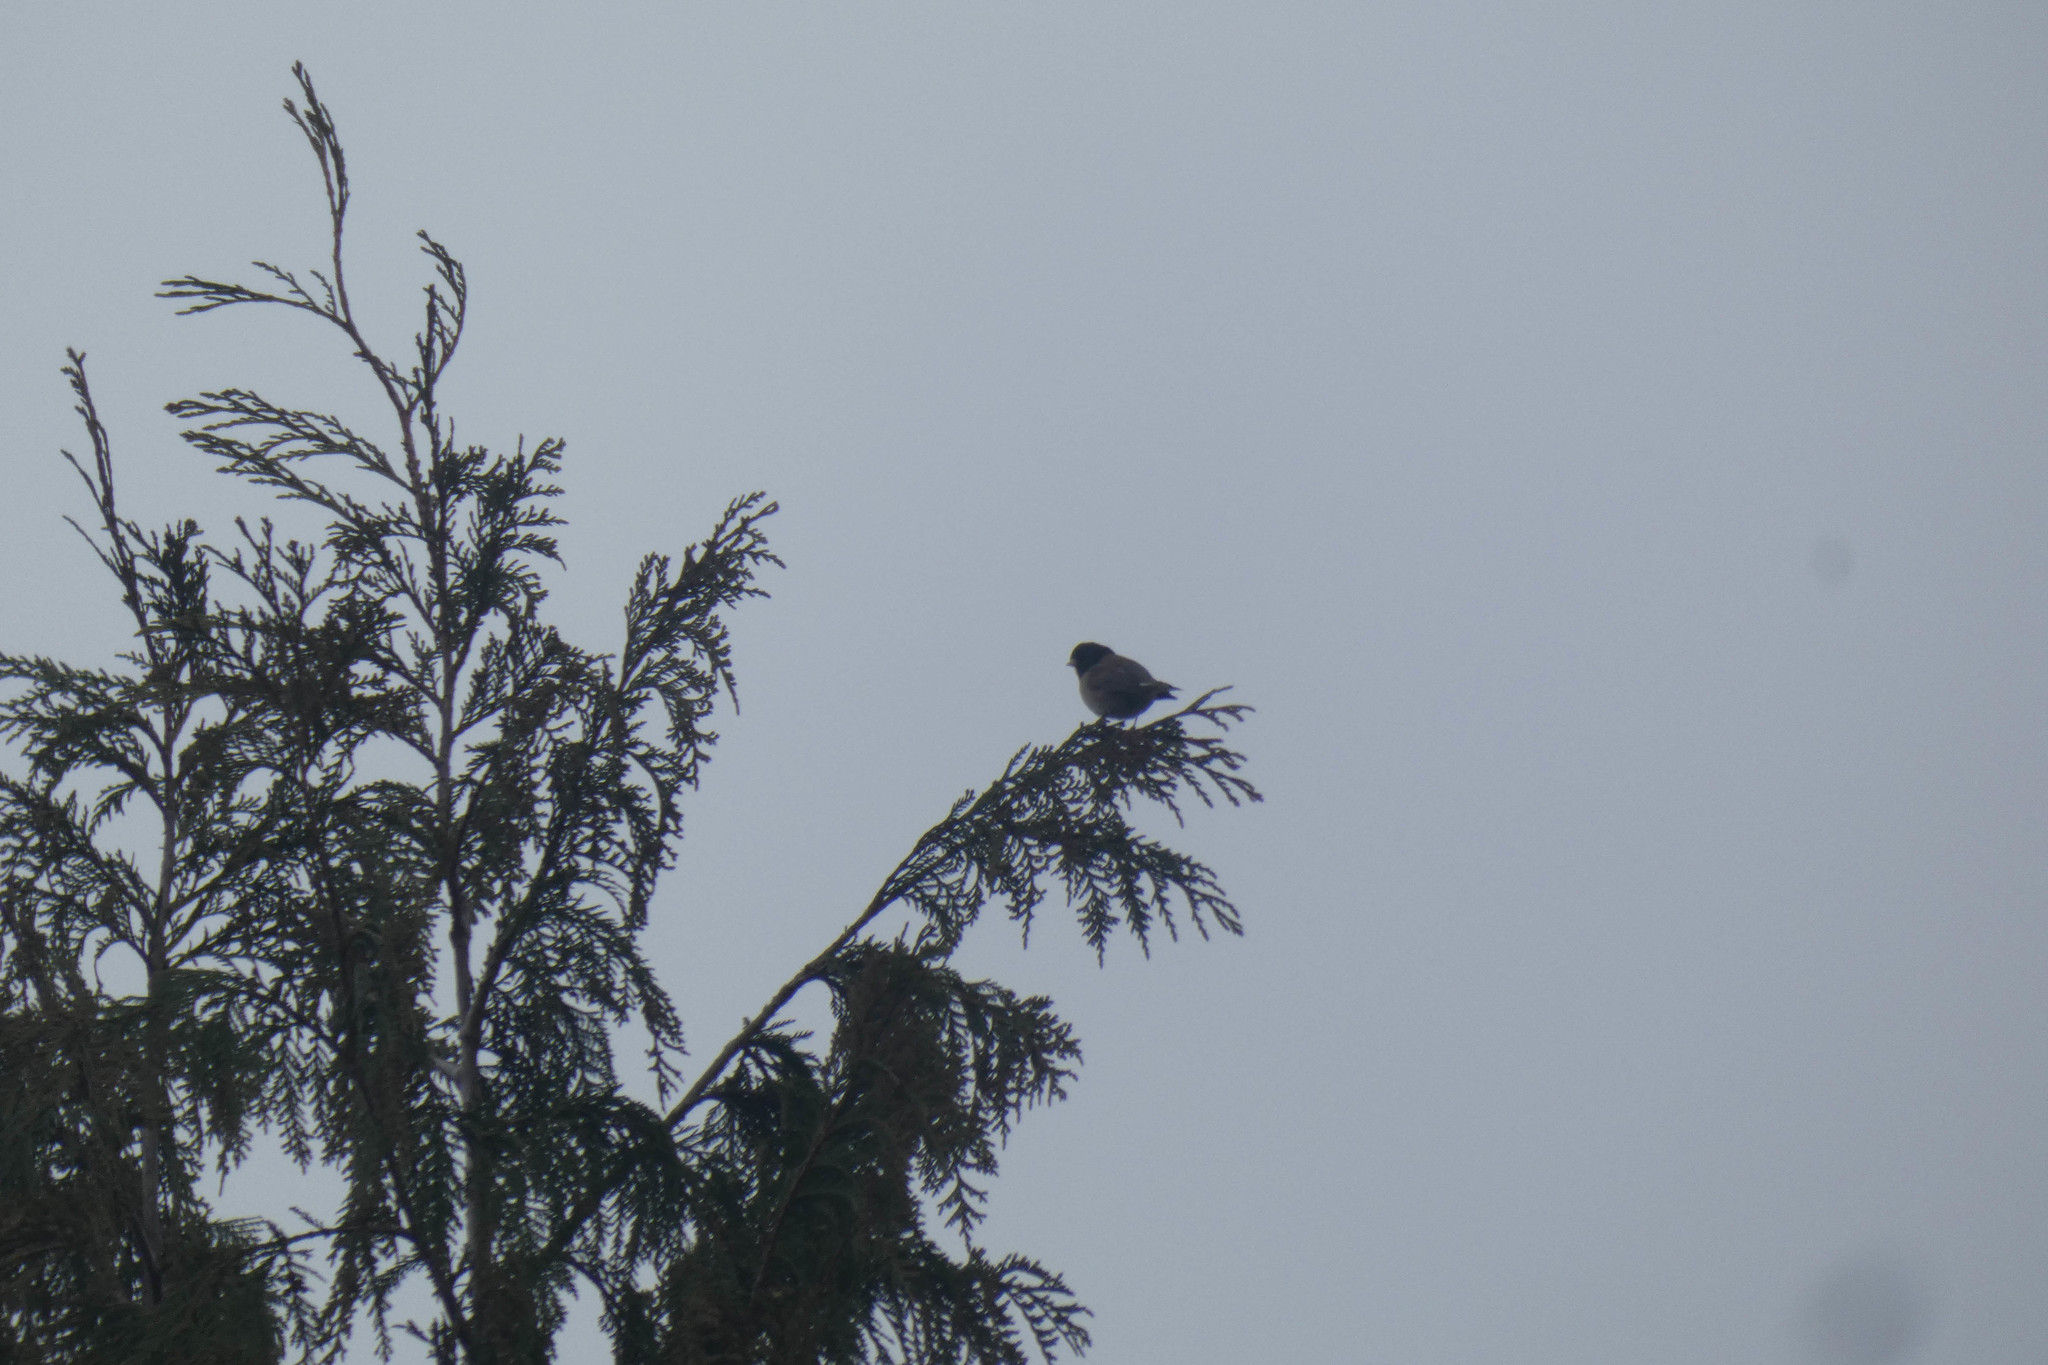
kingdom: Animalia
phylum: Chordata
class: Aves
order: Passeriformes
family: Passerellidae
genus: Junco
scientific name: Junco hyemalis
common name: Dark-eyed junco
